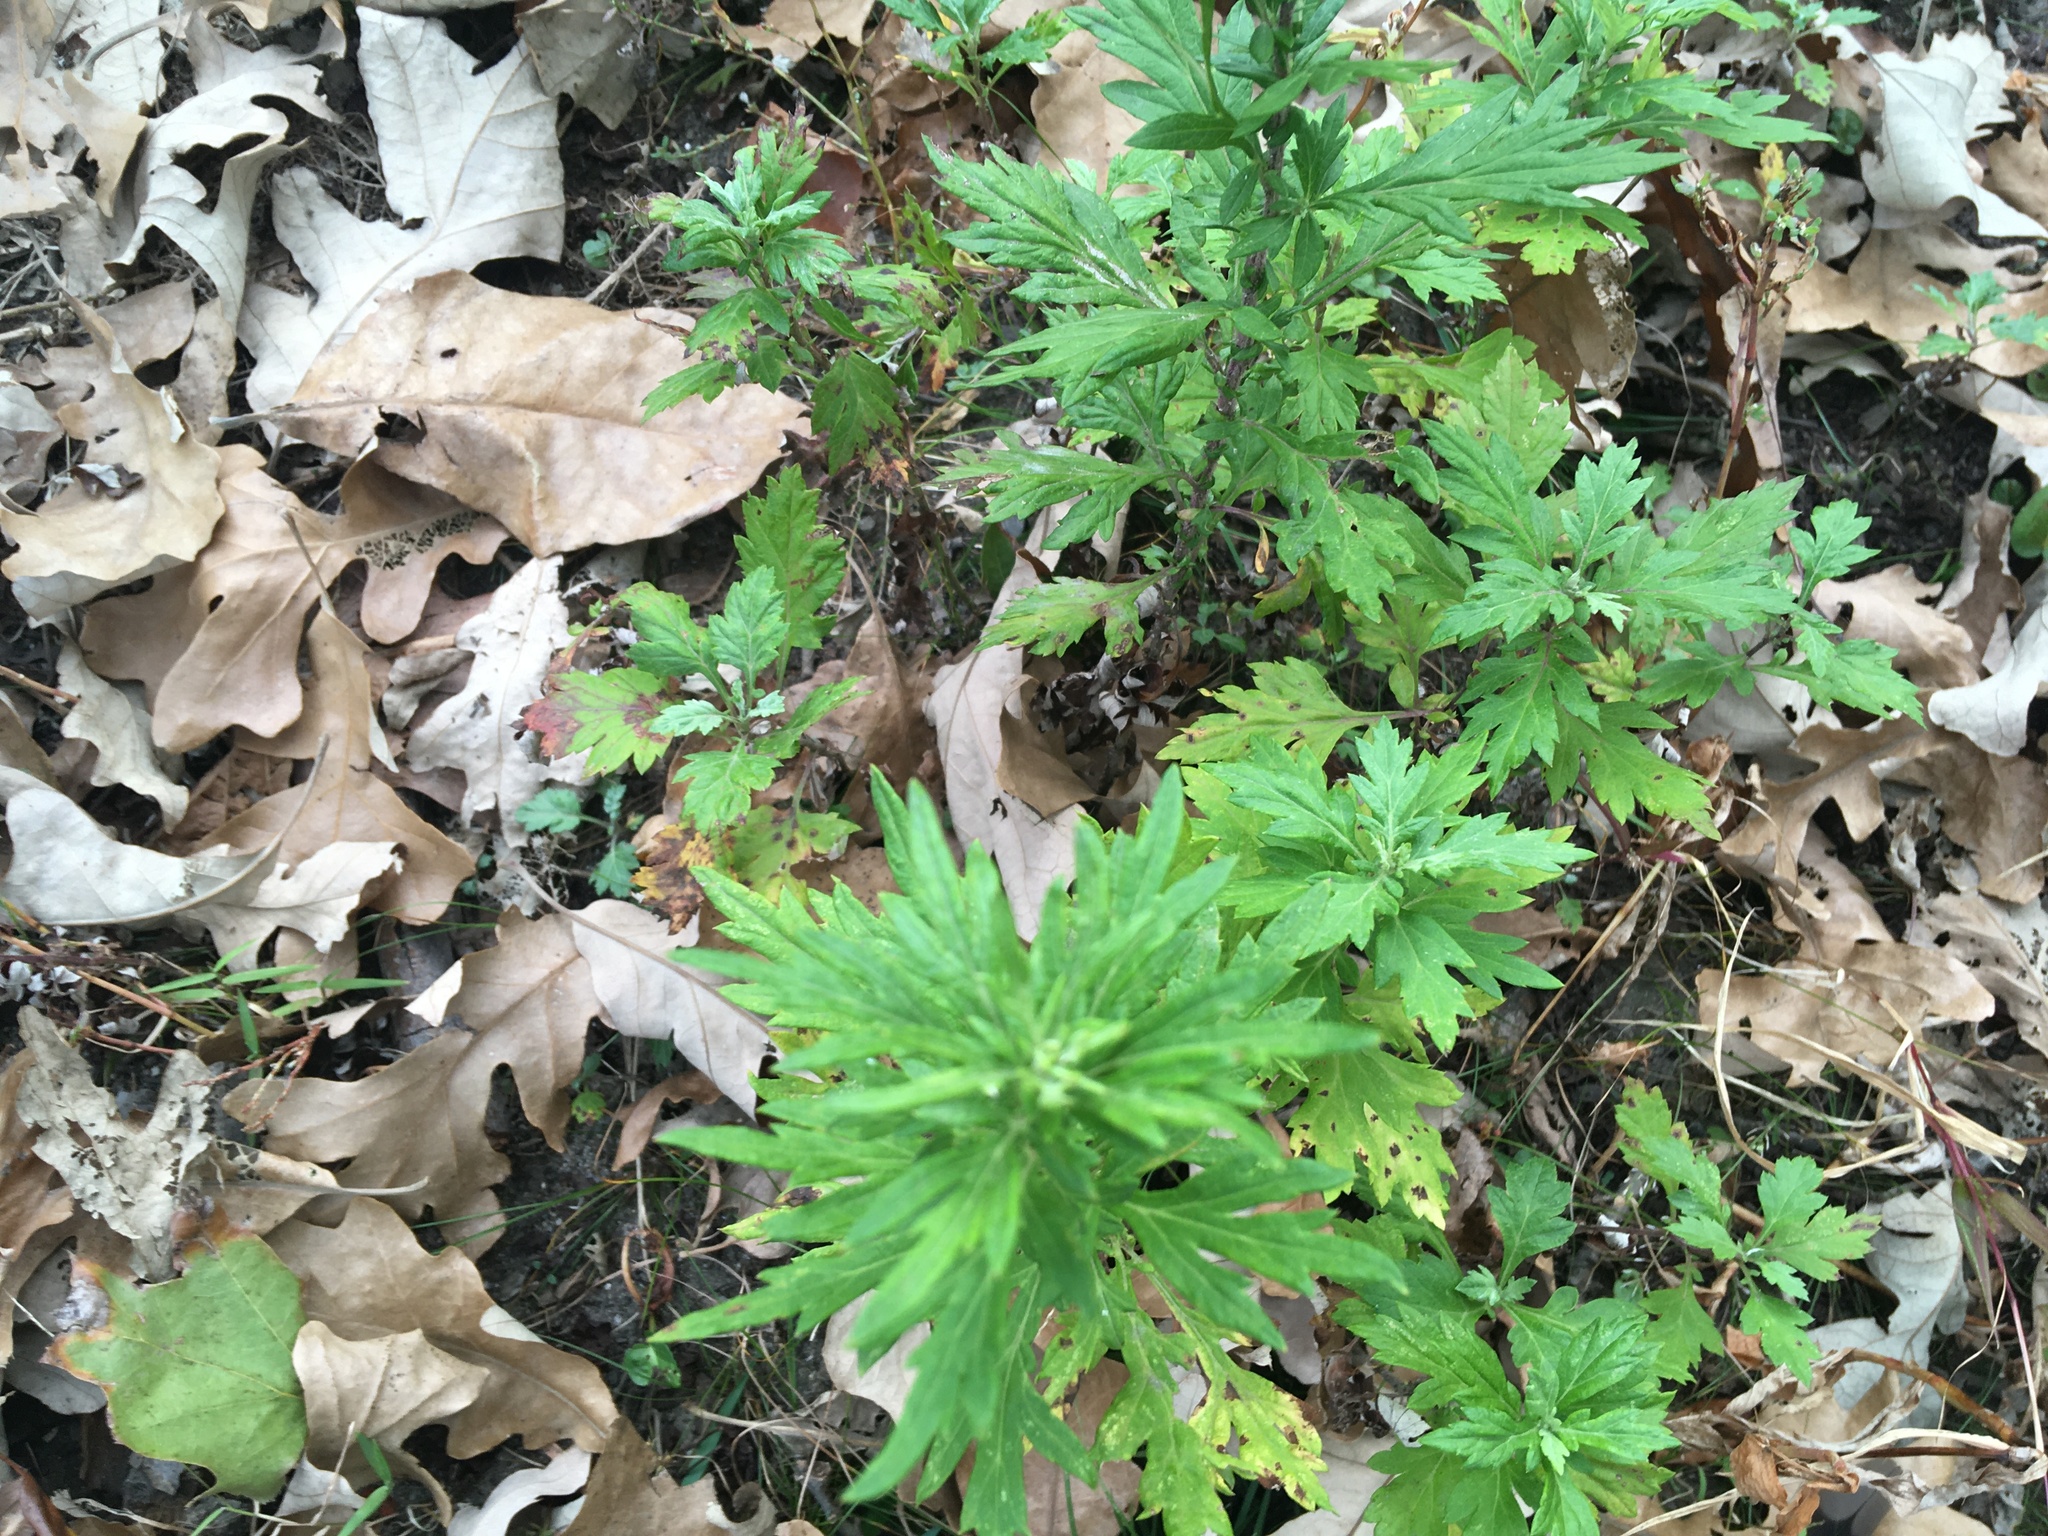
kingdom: Plantae
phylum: Tracheophyta
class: Magnoliopsida
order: Asterales
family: Asteraceae
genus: Artemisia
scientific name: Artemisia vulgaris
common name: Mugwort
